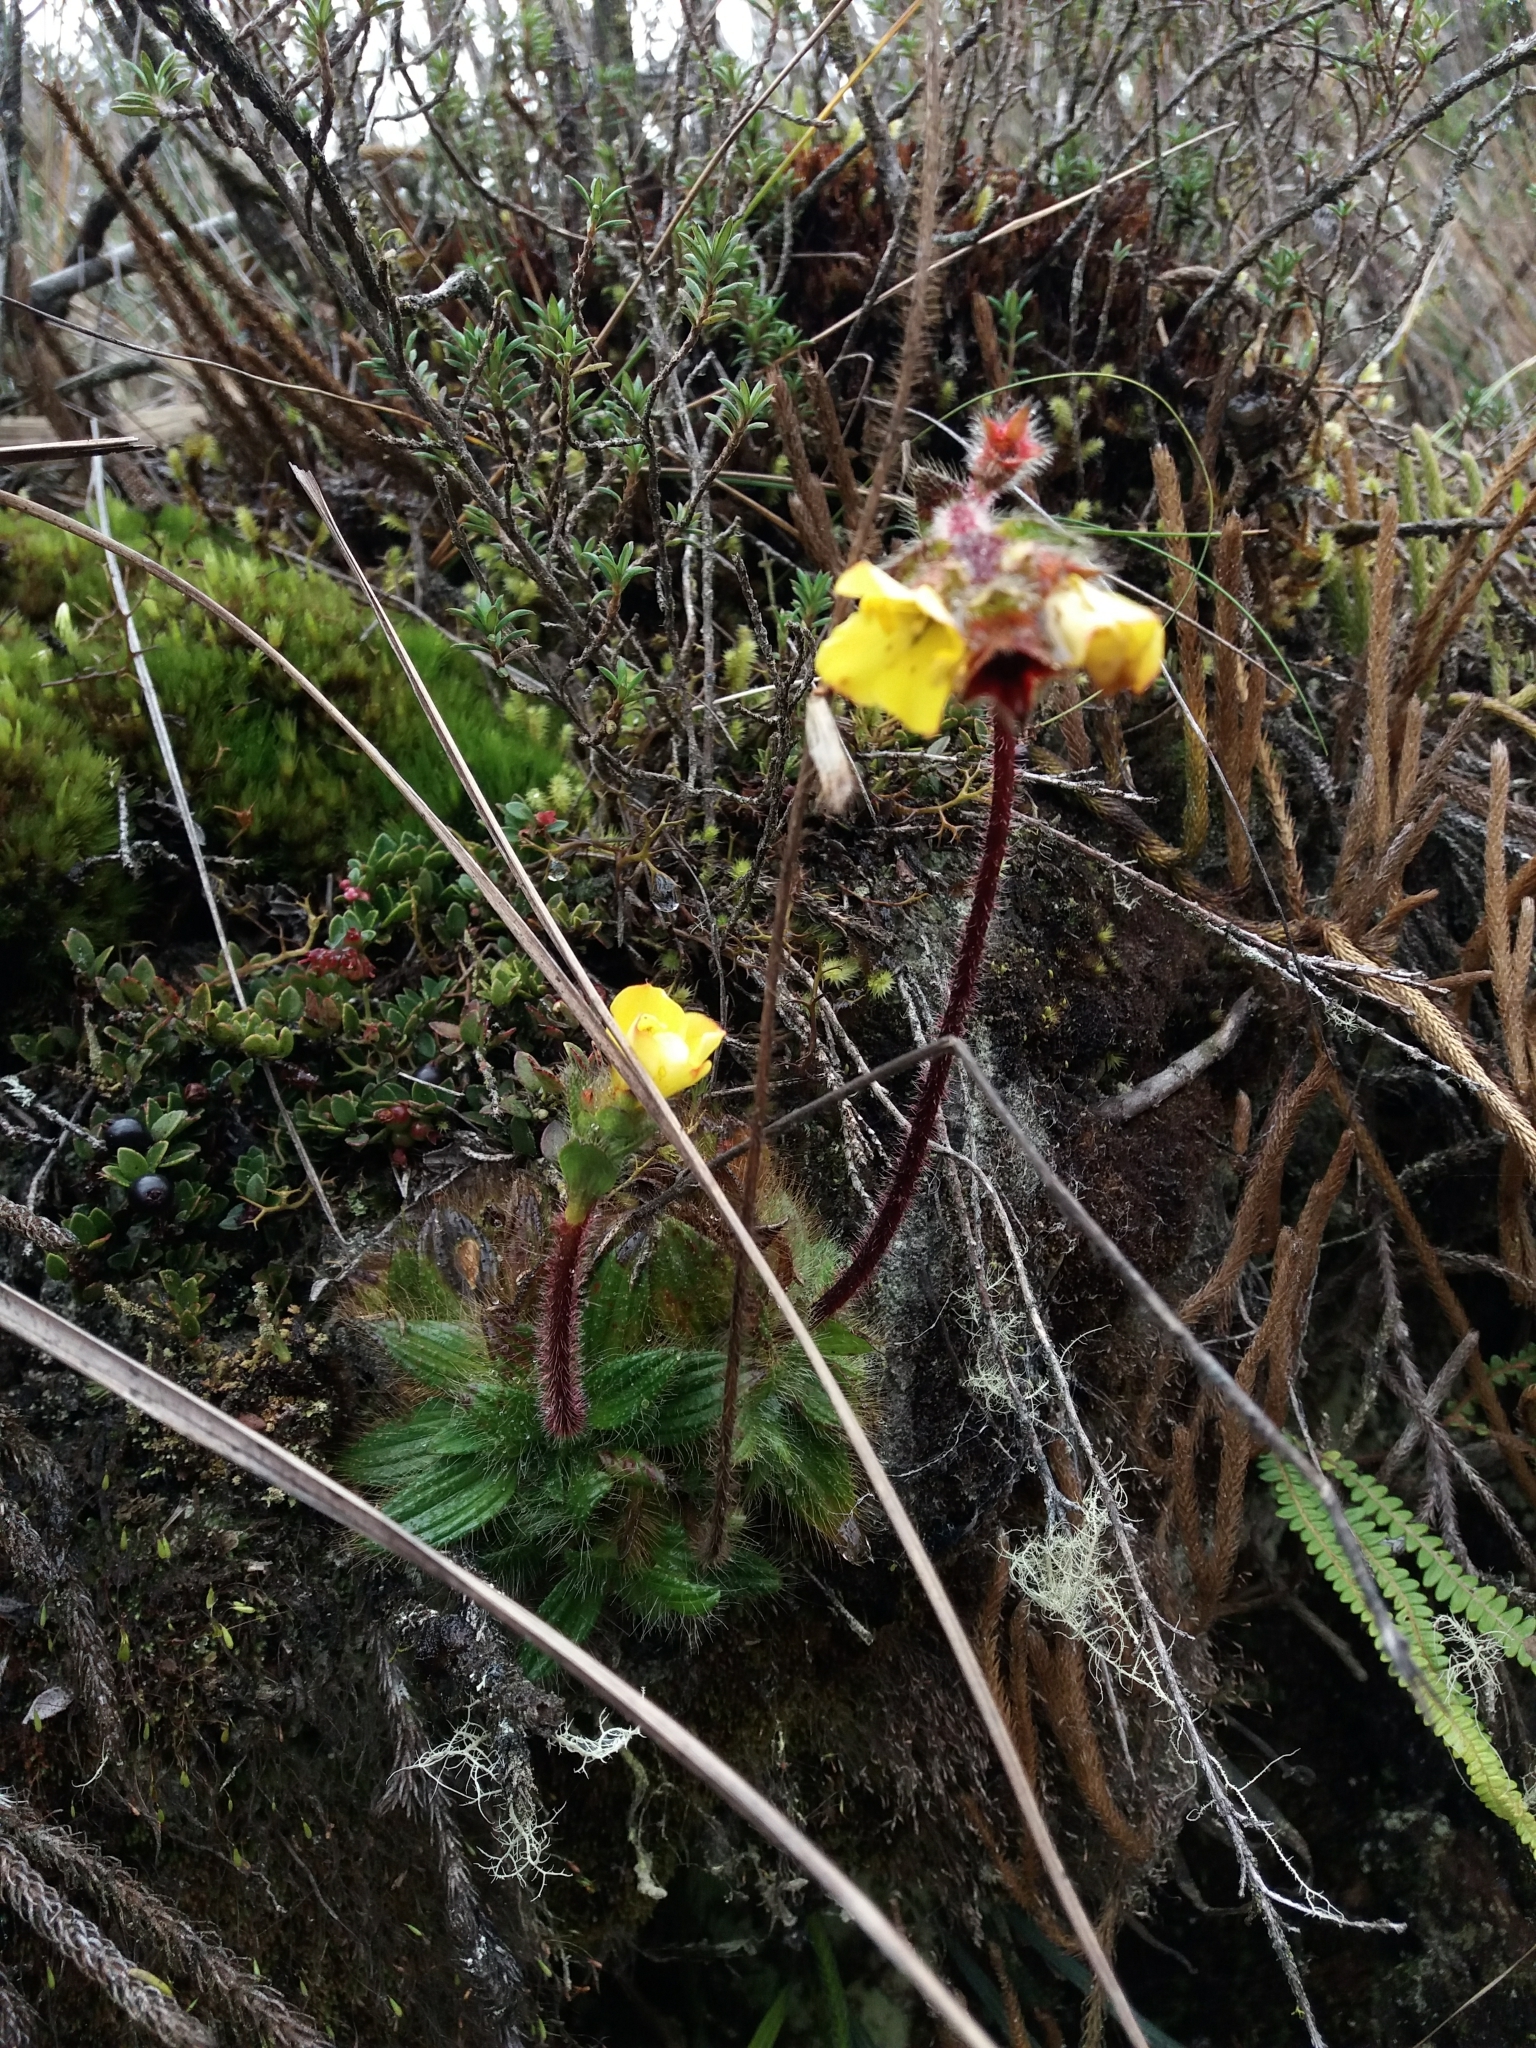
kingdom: Plantae
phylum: Tracheophyta
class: Magnoliopsida
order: Myrtales
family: Melastomataceae
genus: Castratella
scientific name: Castratella piloselloides
